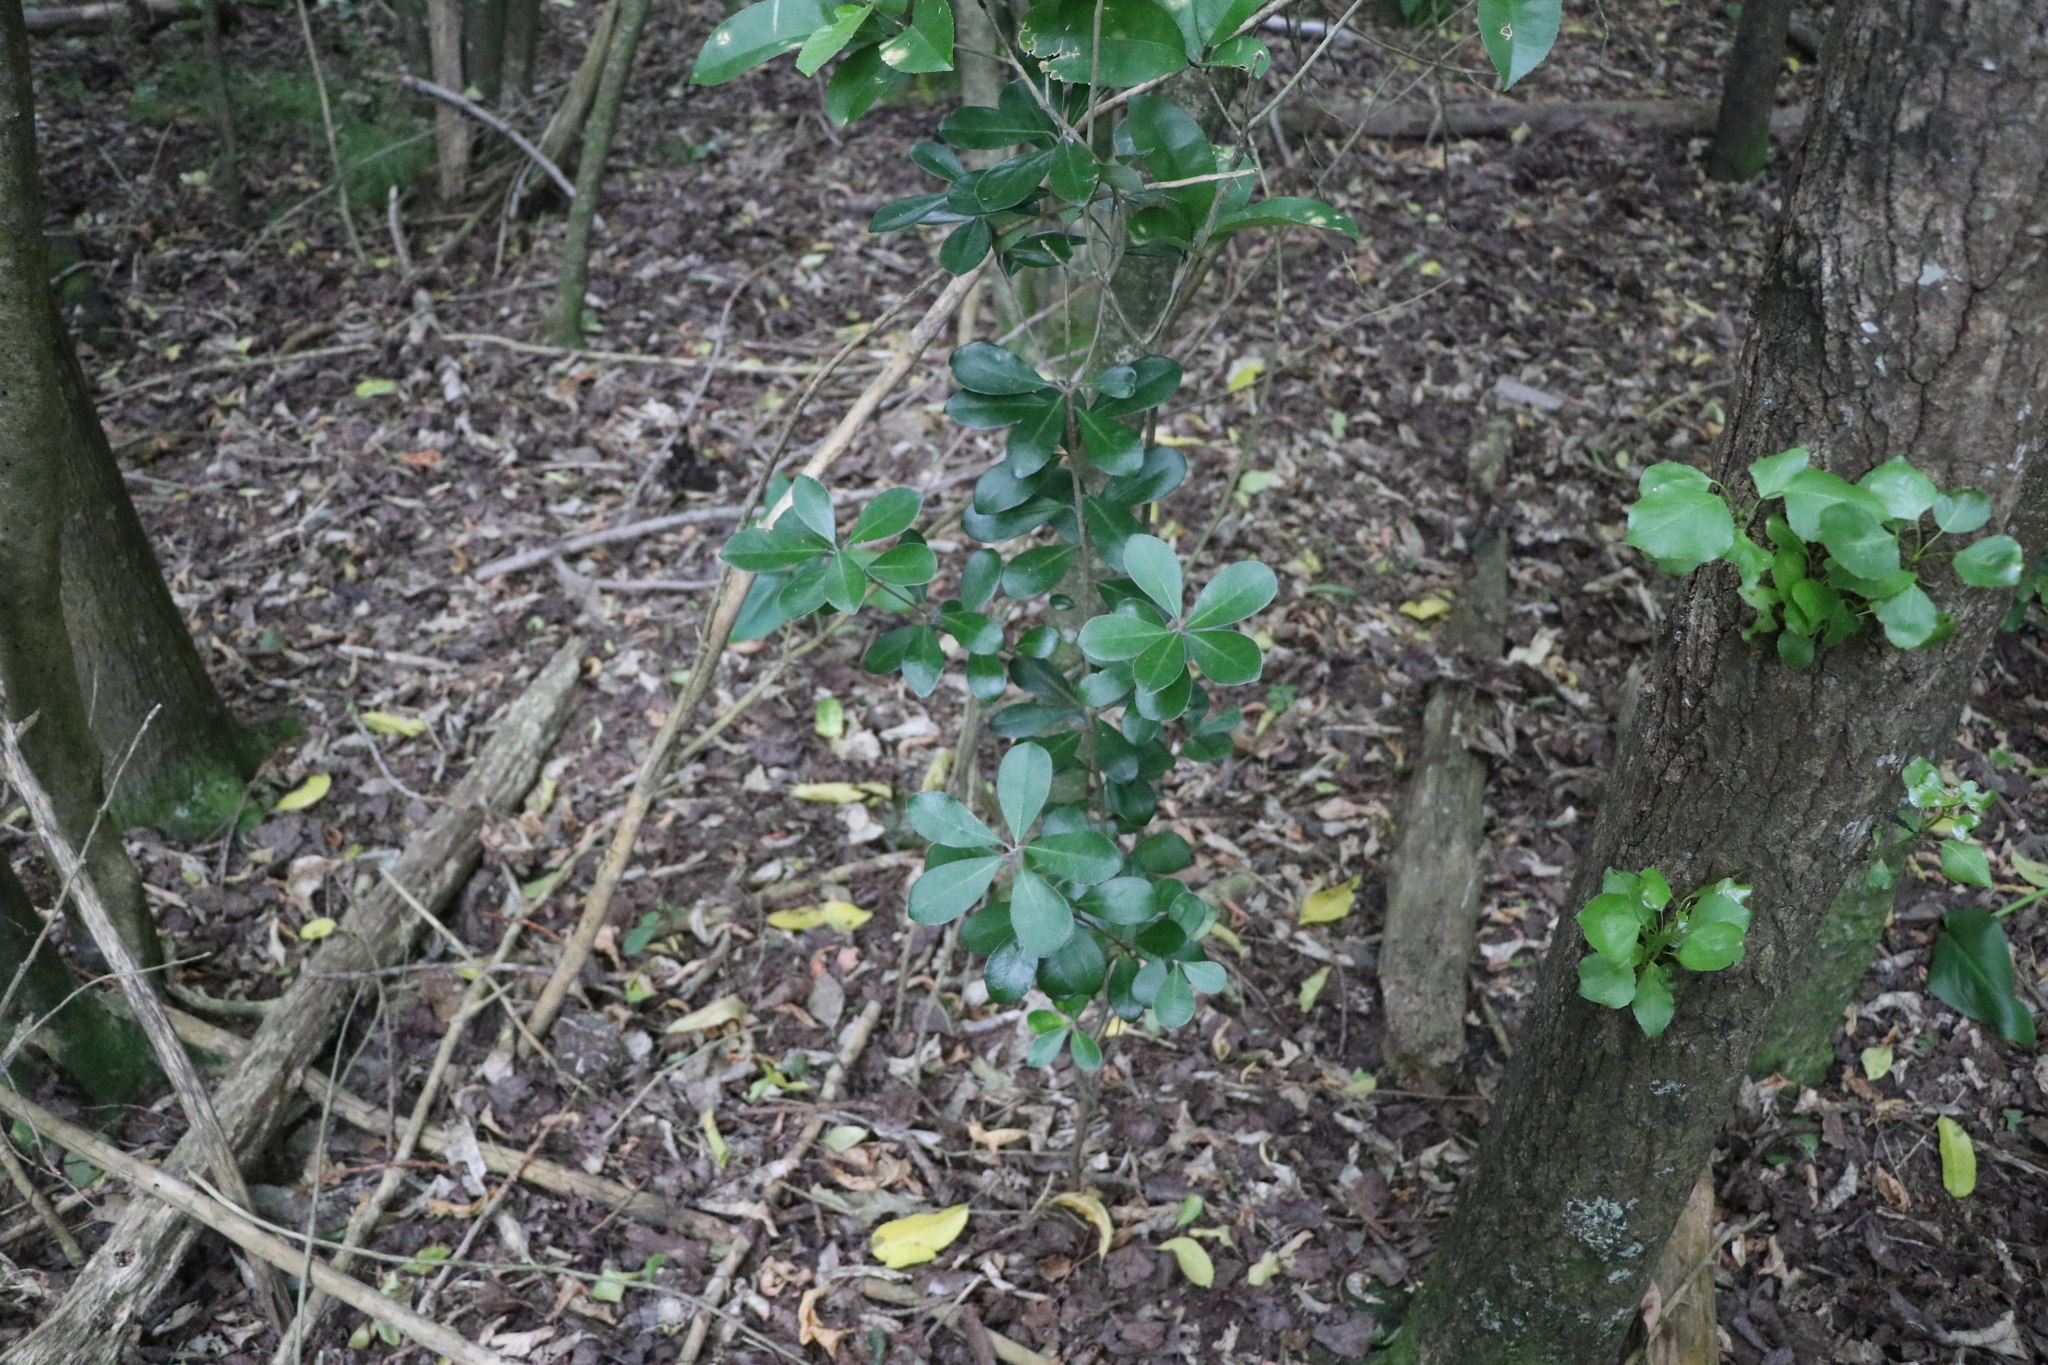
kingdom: Plantae
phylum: Tracheophyta
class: Magnoliopsida
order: Apiales
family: Pittosporaceae
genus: Pittosporum
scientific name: Pittosporum crassifolium
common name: Karo
